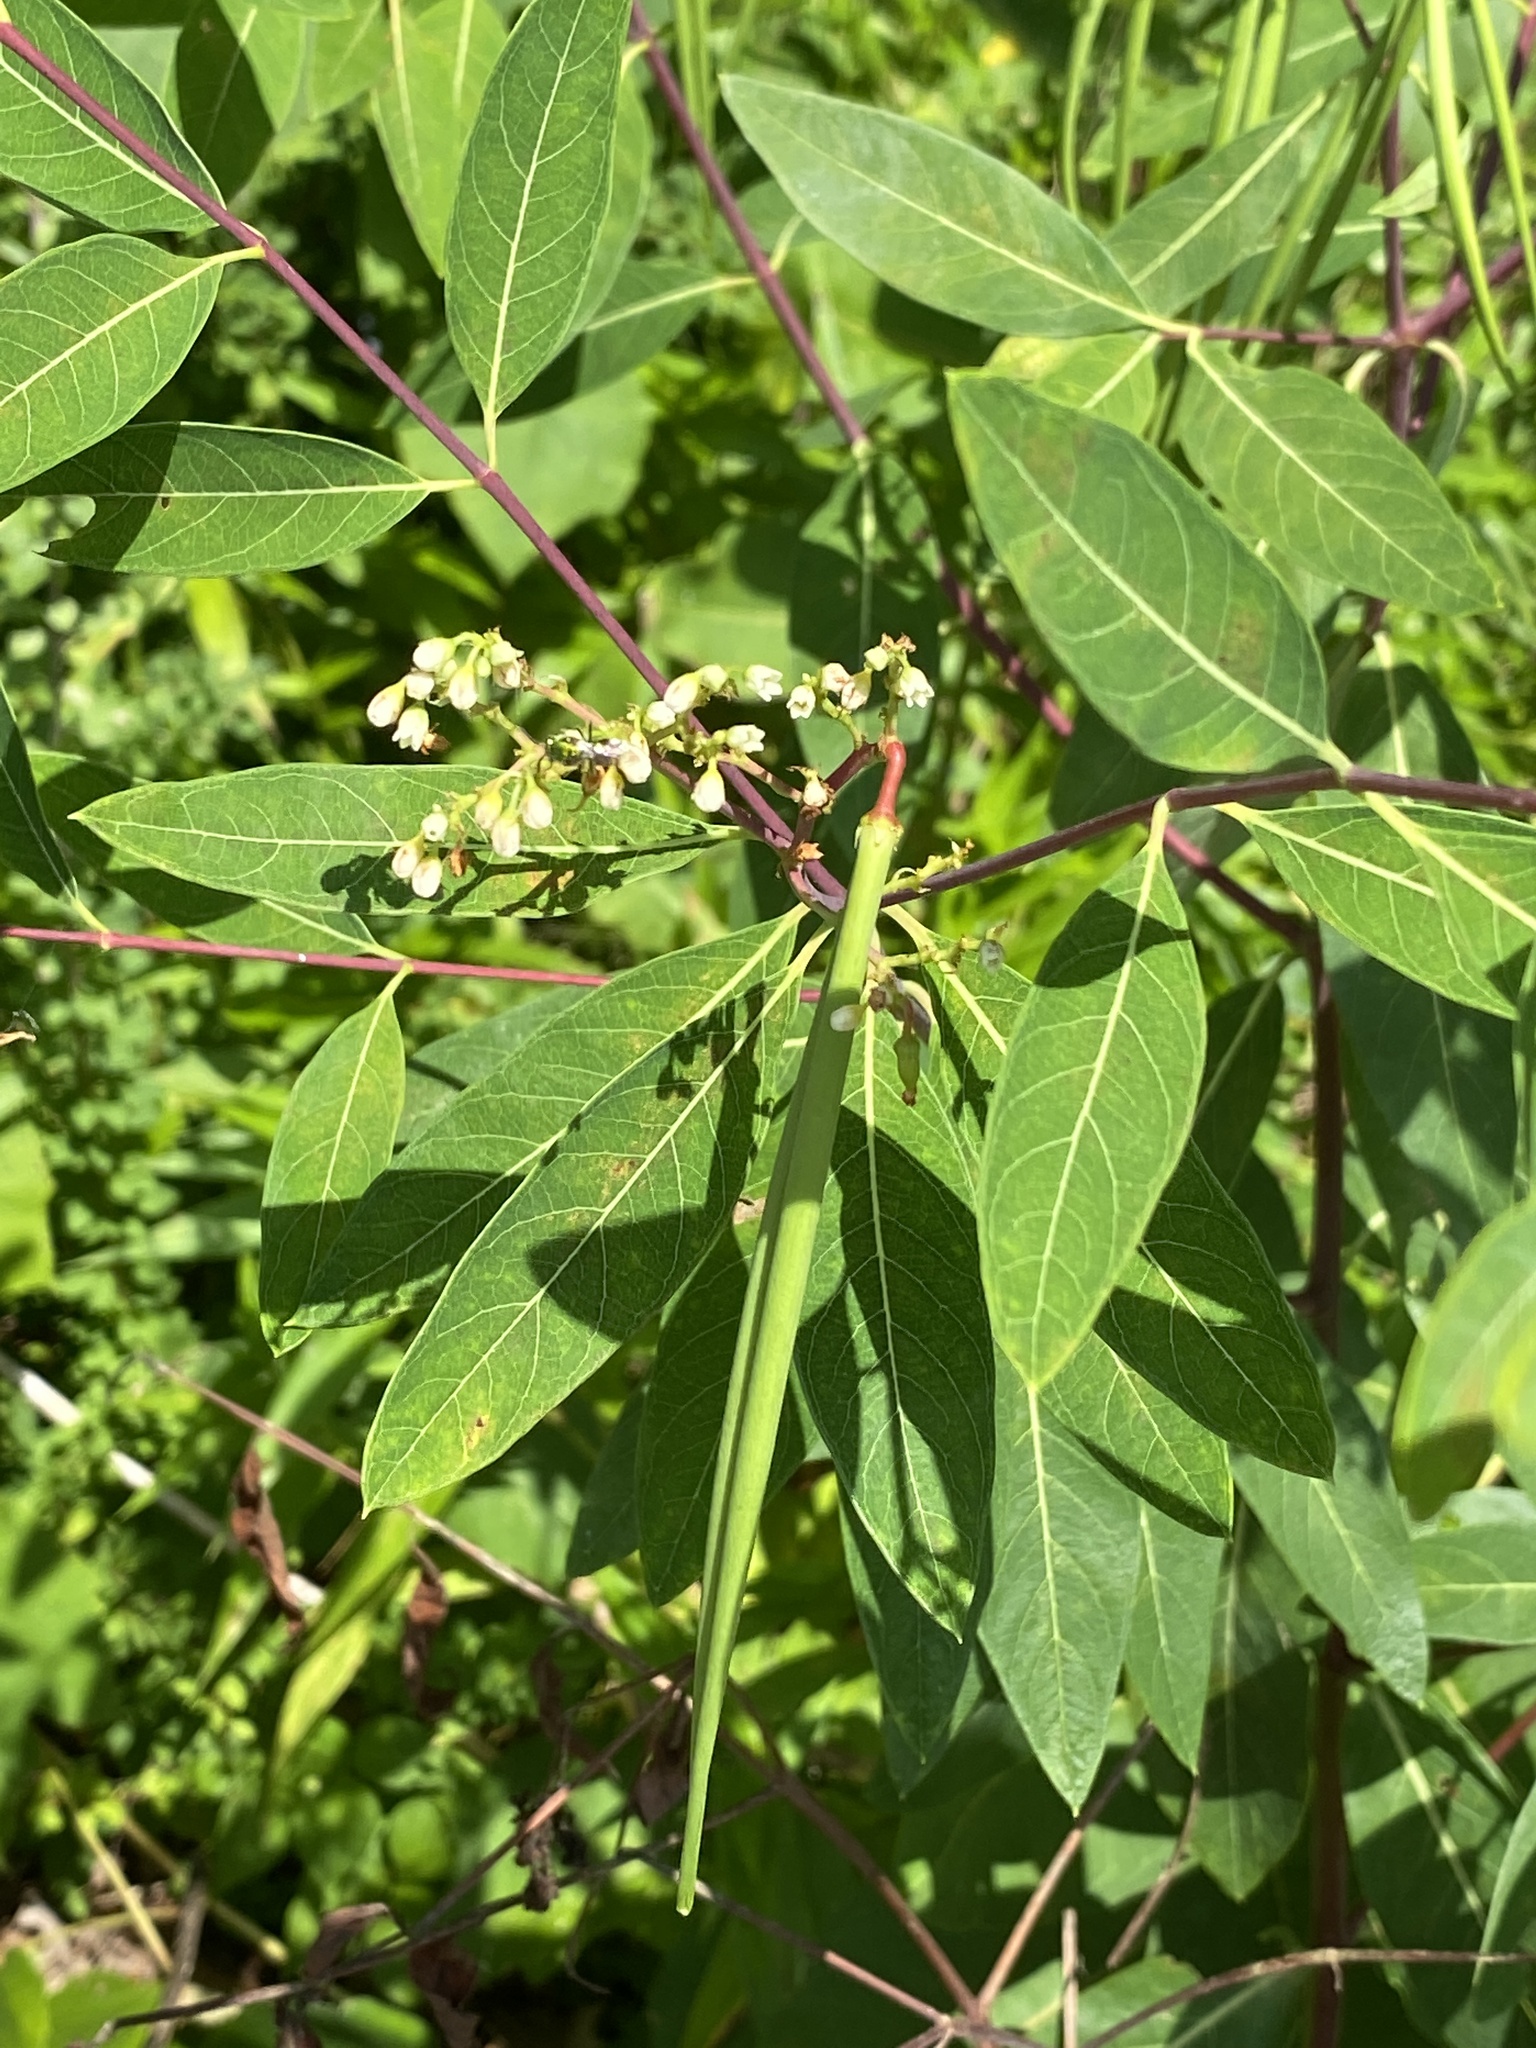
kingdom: Plantae
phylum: Tracheophyta
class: Magnoliopsida
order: Gentianales
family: Apocynaceae
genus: Apocynum
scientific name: Apocynum cannabinum
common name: Hemp dogbane
